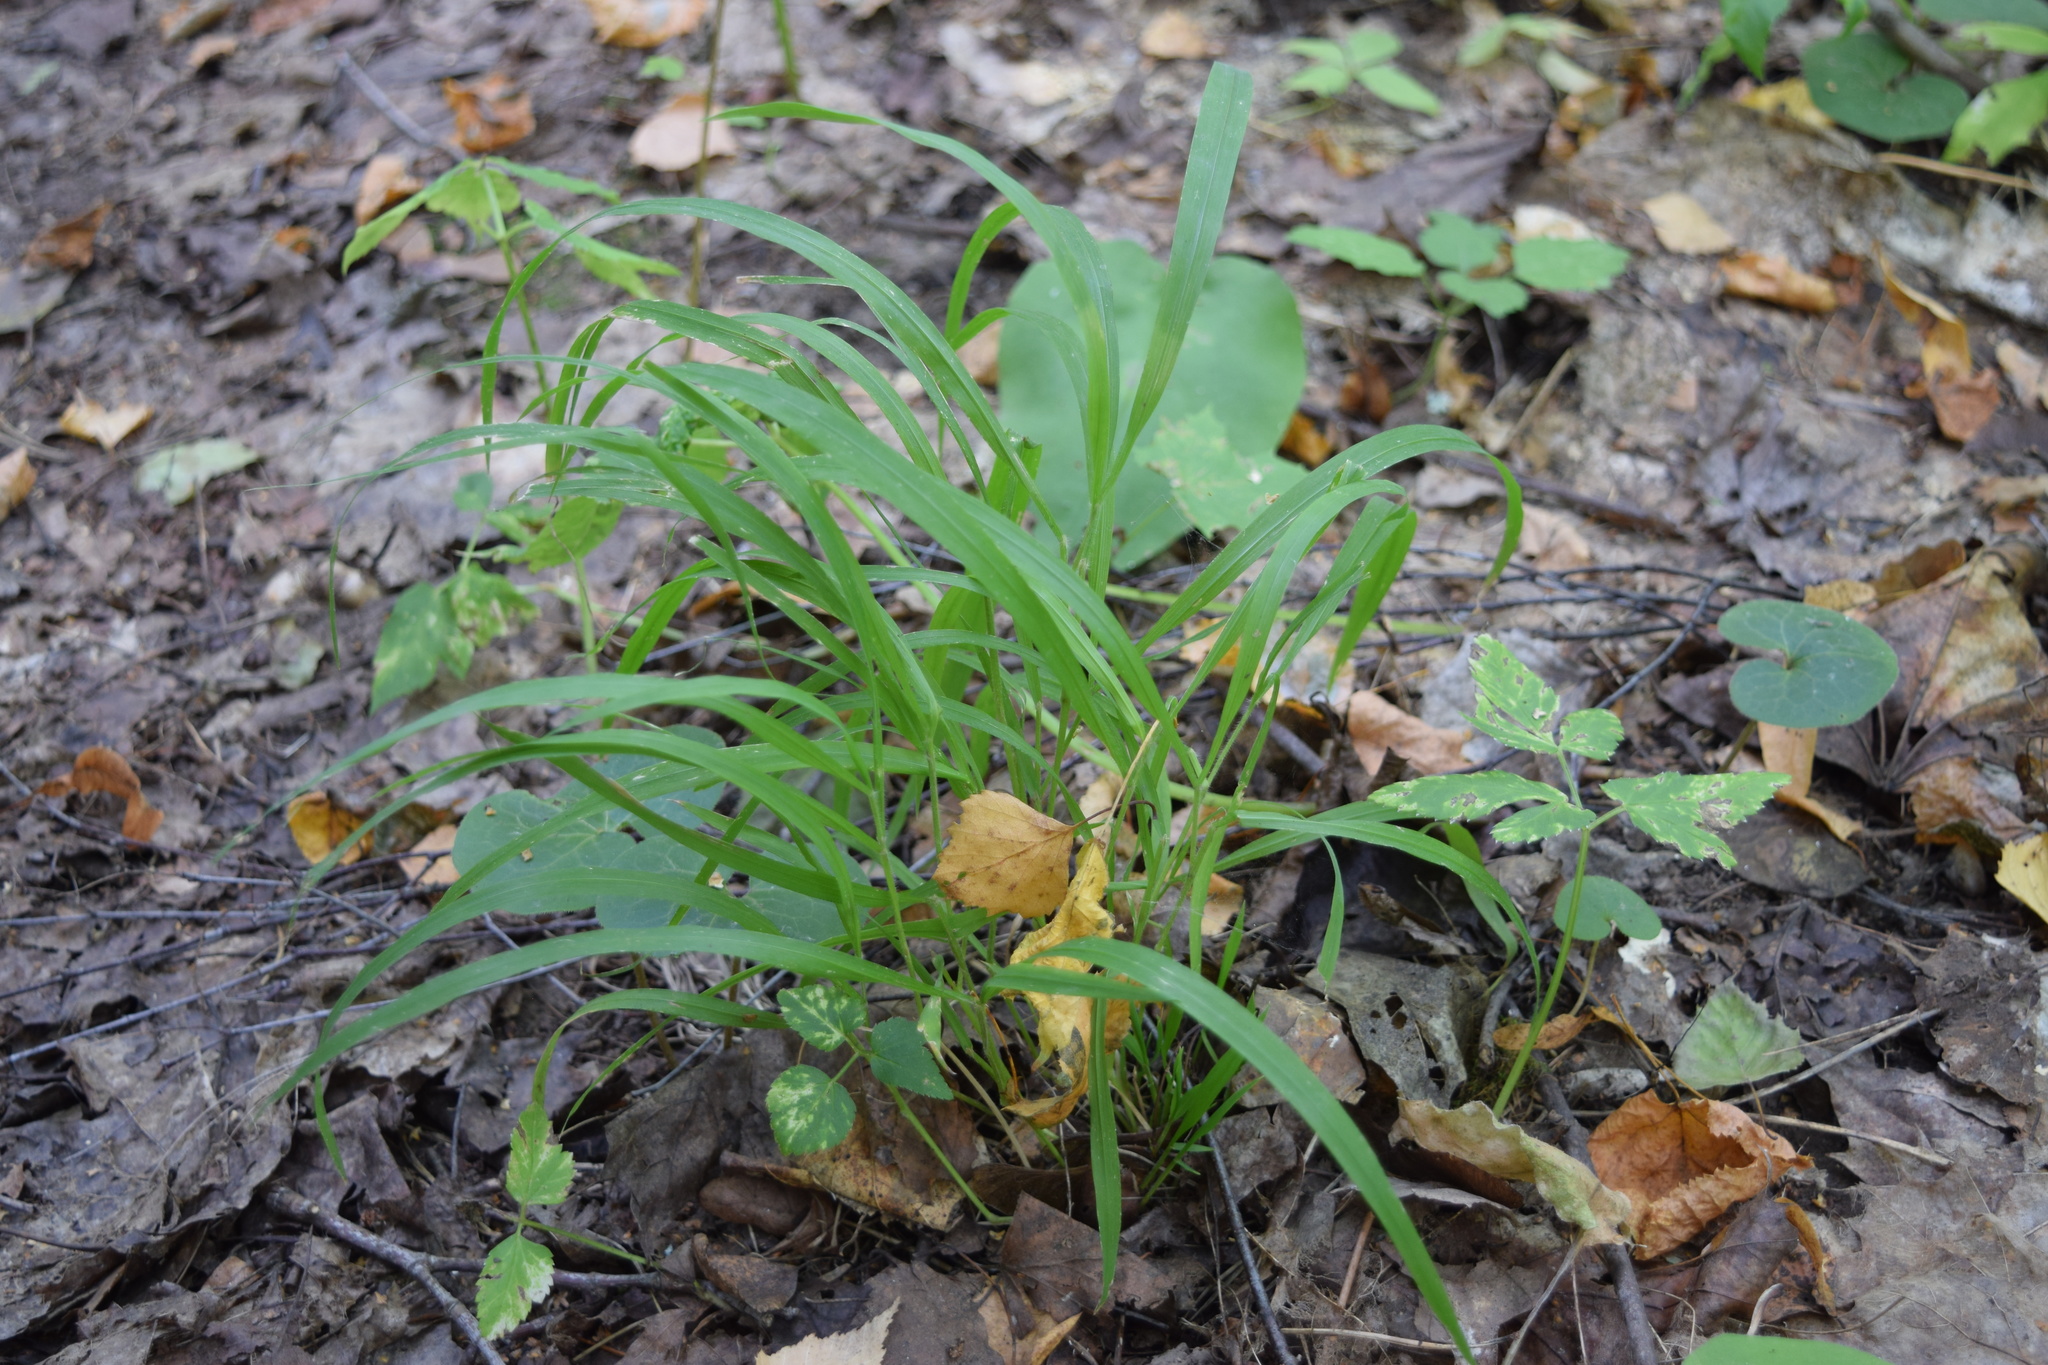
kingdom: Plantae
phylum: Tracheophyta
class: Liliopsida
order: Poales
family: Poaceae
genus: Brachypodium
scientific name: Brachypodium sylvaticum
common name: False-brome
